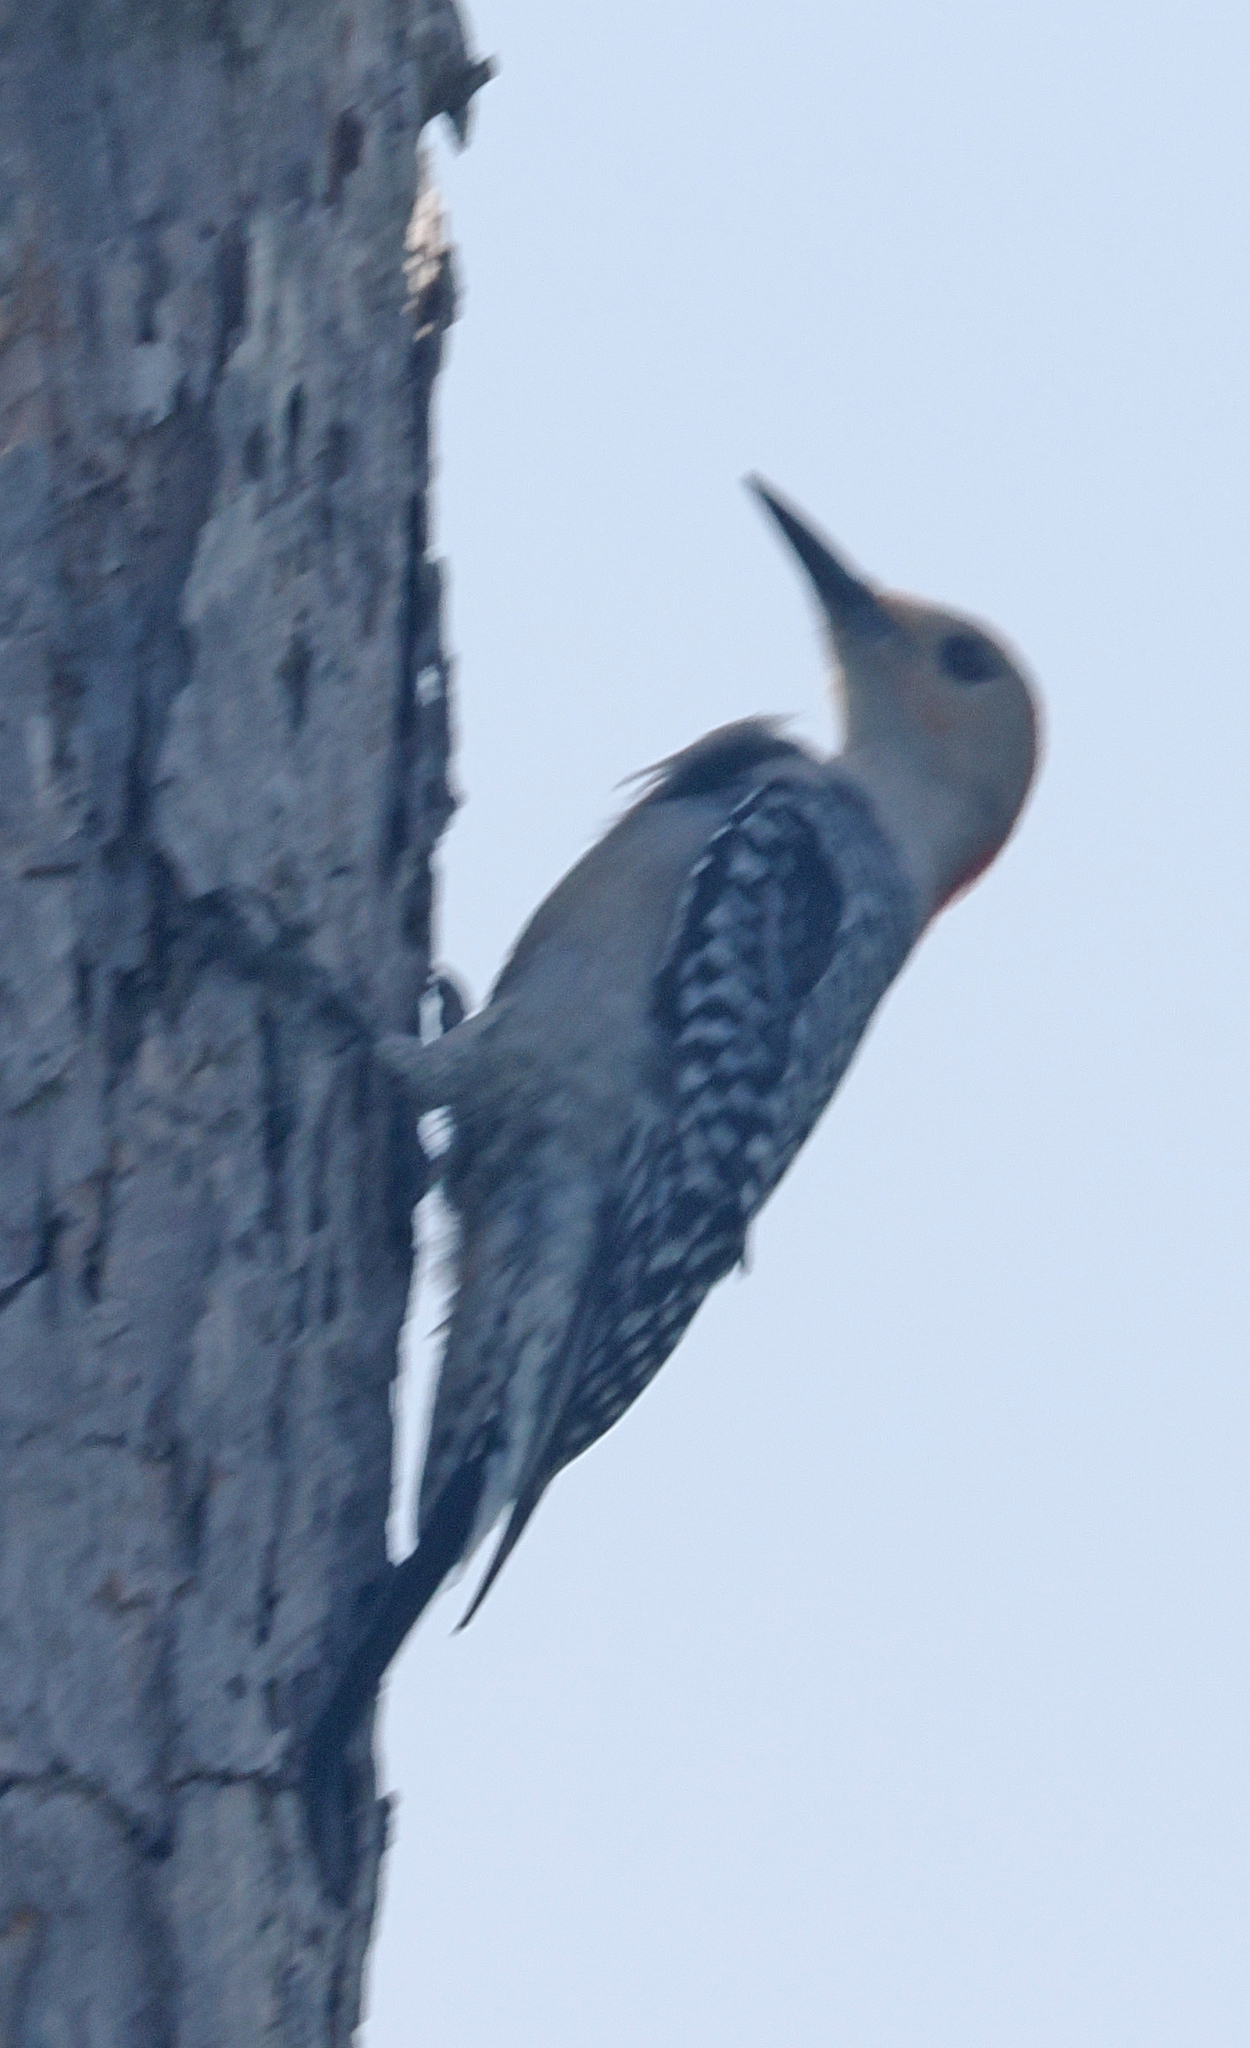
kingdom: Animalia
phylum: Chordata
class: Aves
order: Piciformes
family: Picidae
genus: Melanerpes
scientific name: Melanerpes carolinus
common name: Red-bellied woodpecker
